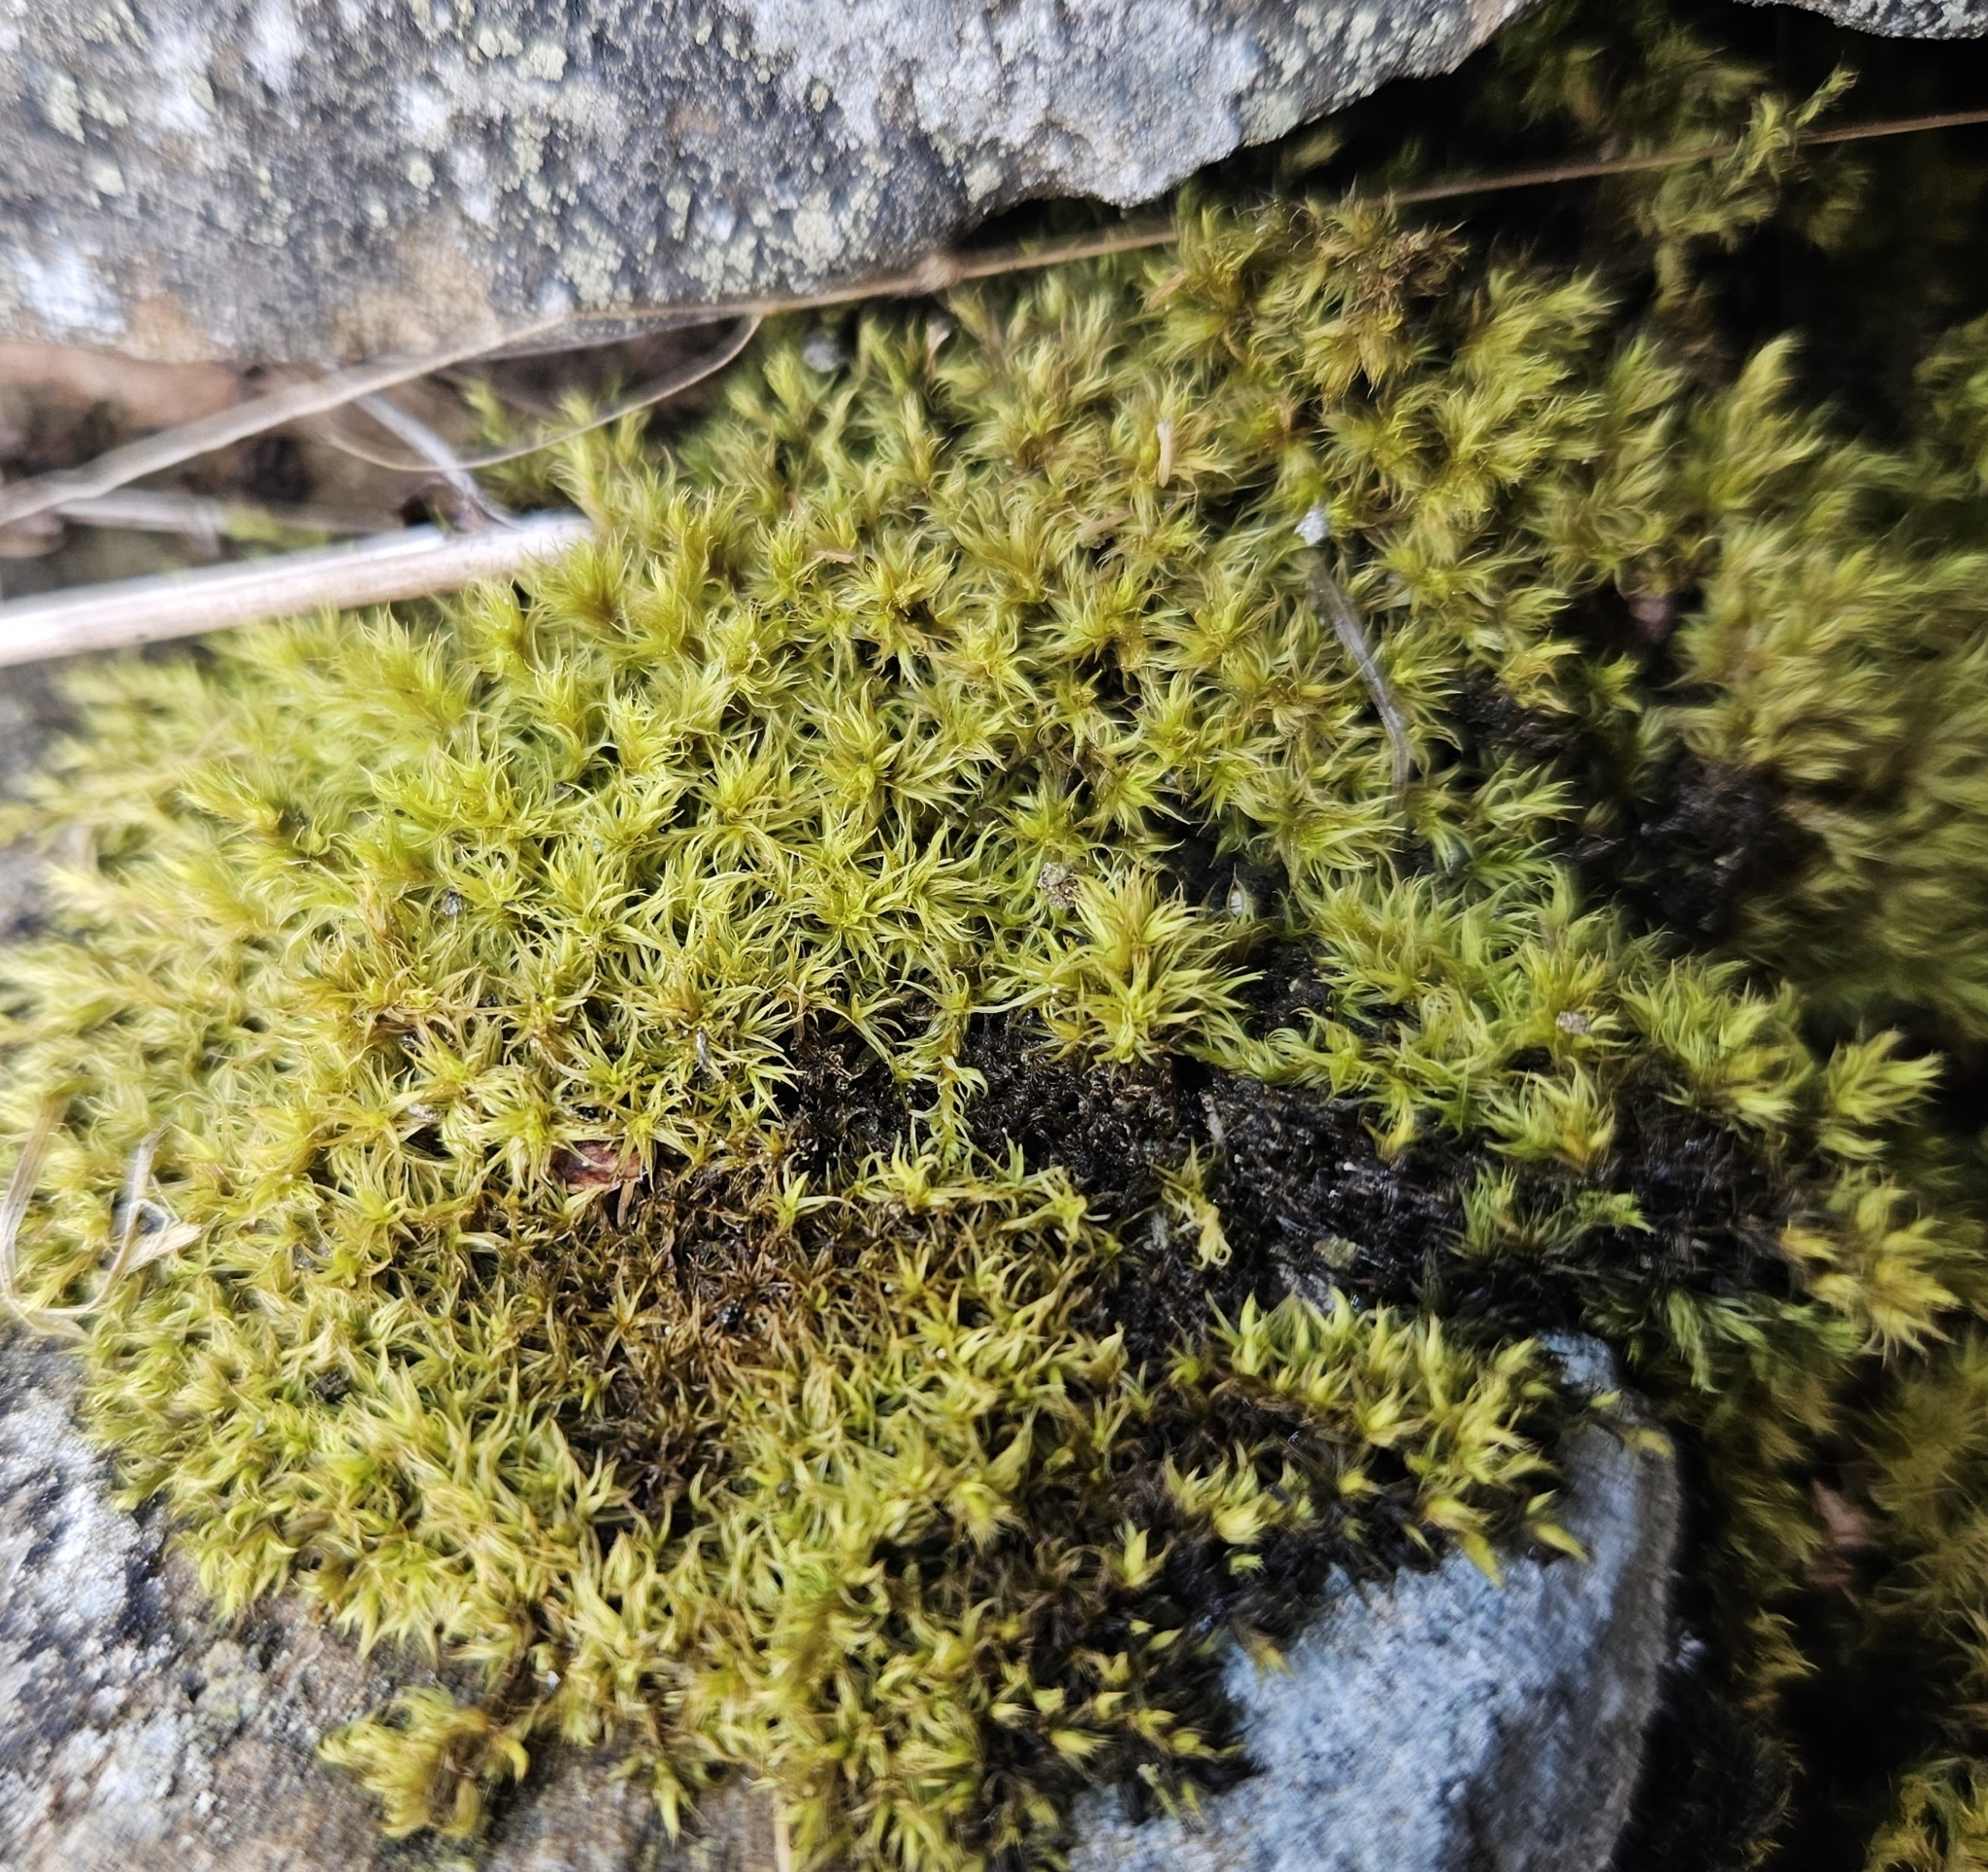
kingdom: Plantae
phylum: Bryophyta
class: Bryopsida
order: Grimmiales
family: Grimmiaceae
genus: Dilutineuron
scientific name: Dilutineuron fasciculare
